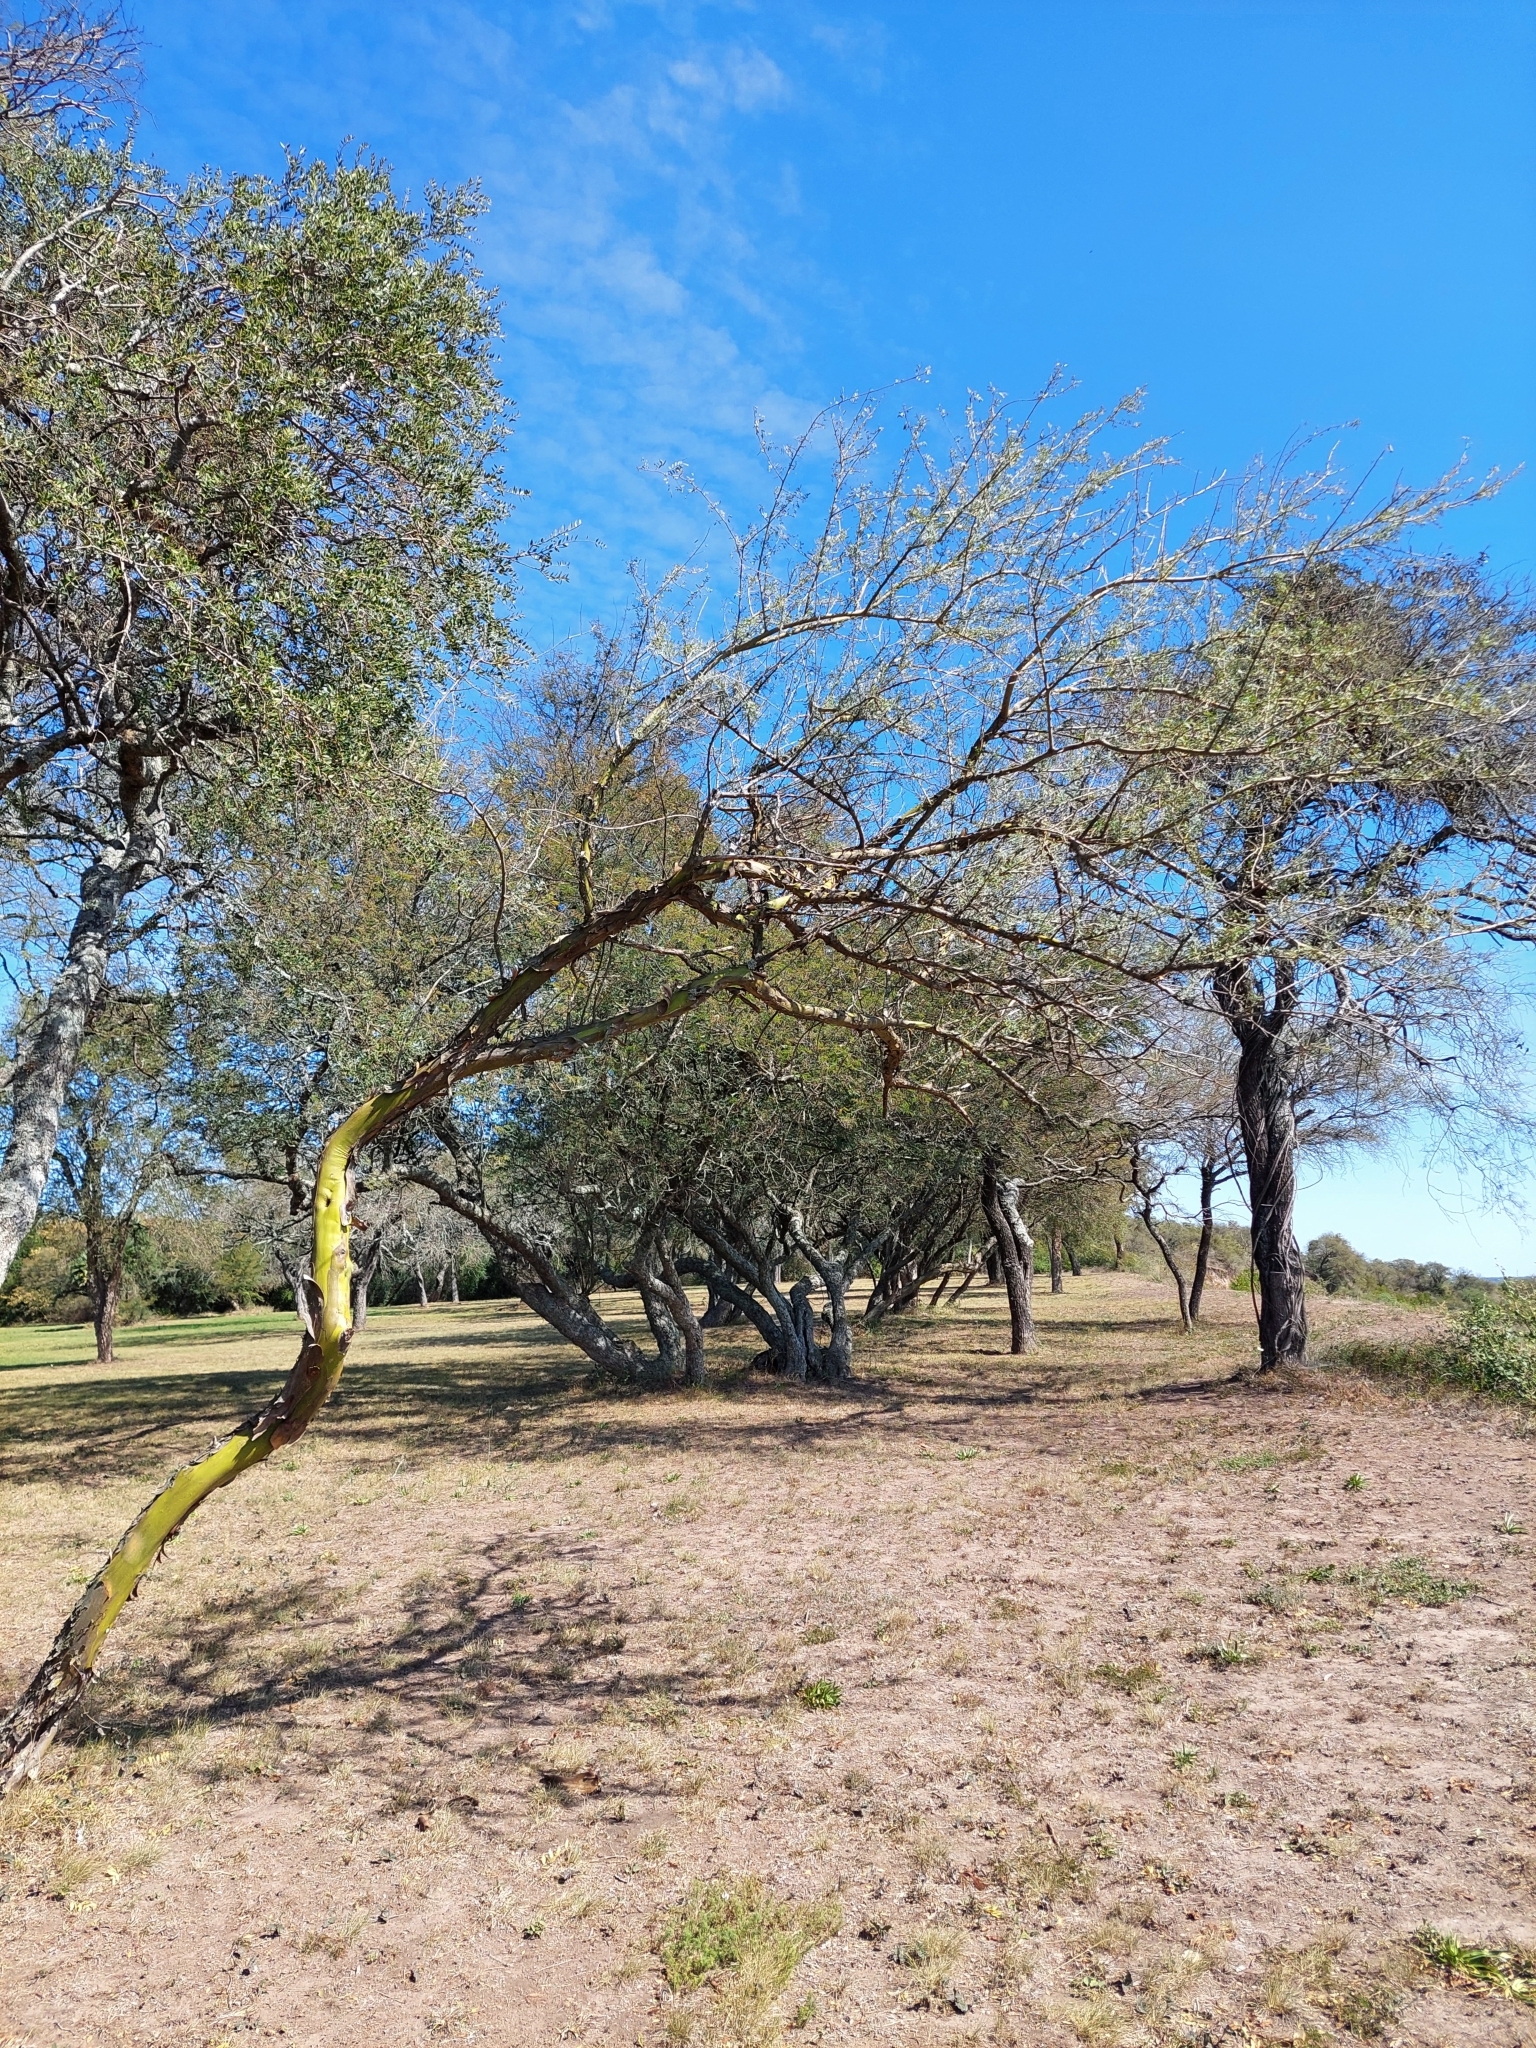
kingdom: Plantae
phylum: Tracheophyta
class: Magnoliopsida
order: Fabales
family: Fabaceae
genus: Geoffroea
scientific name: Geoffroea decorticans
